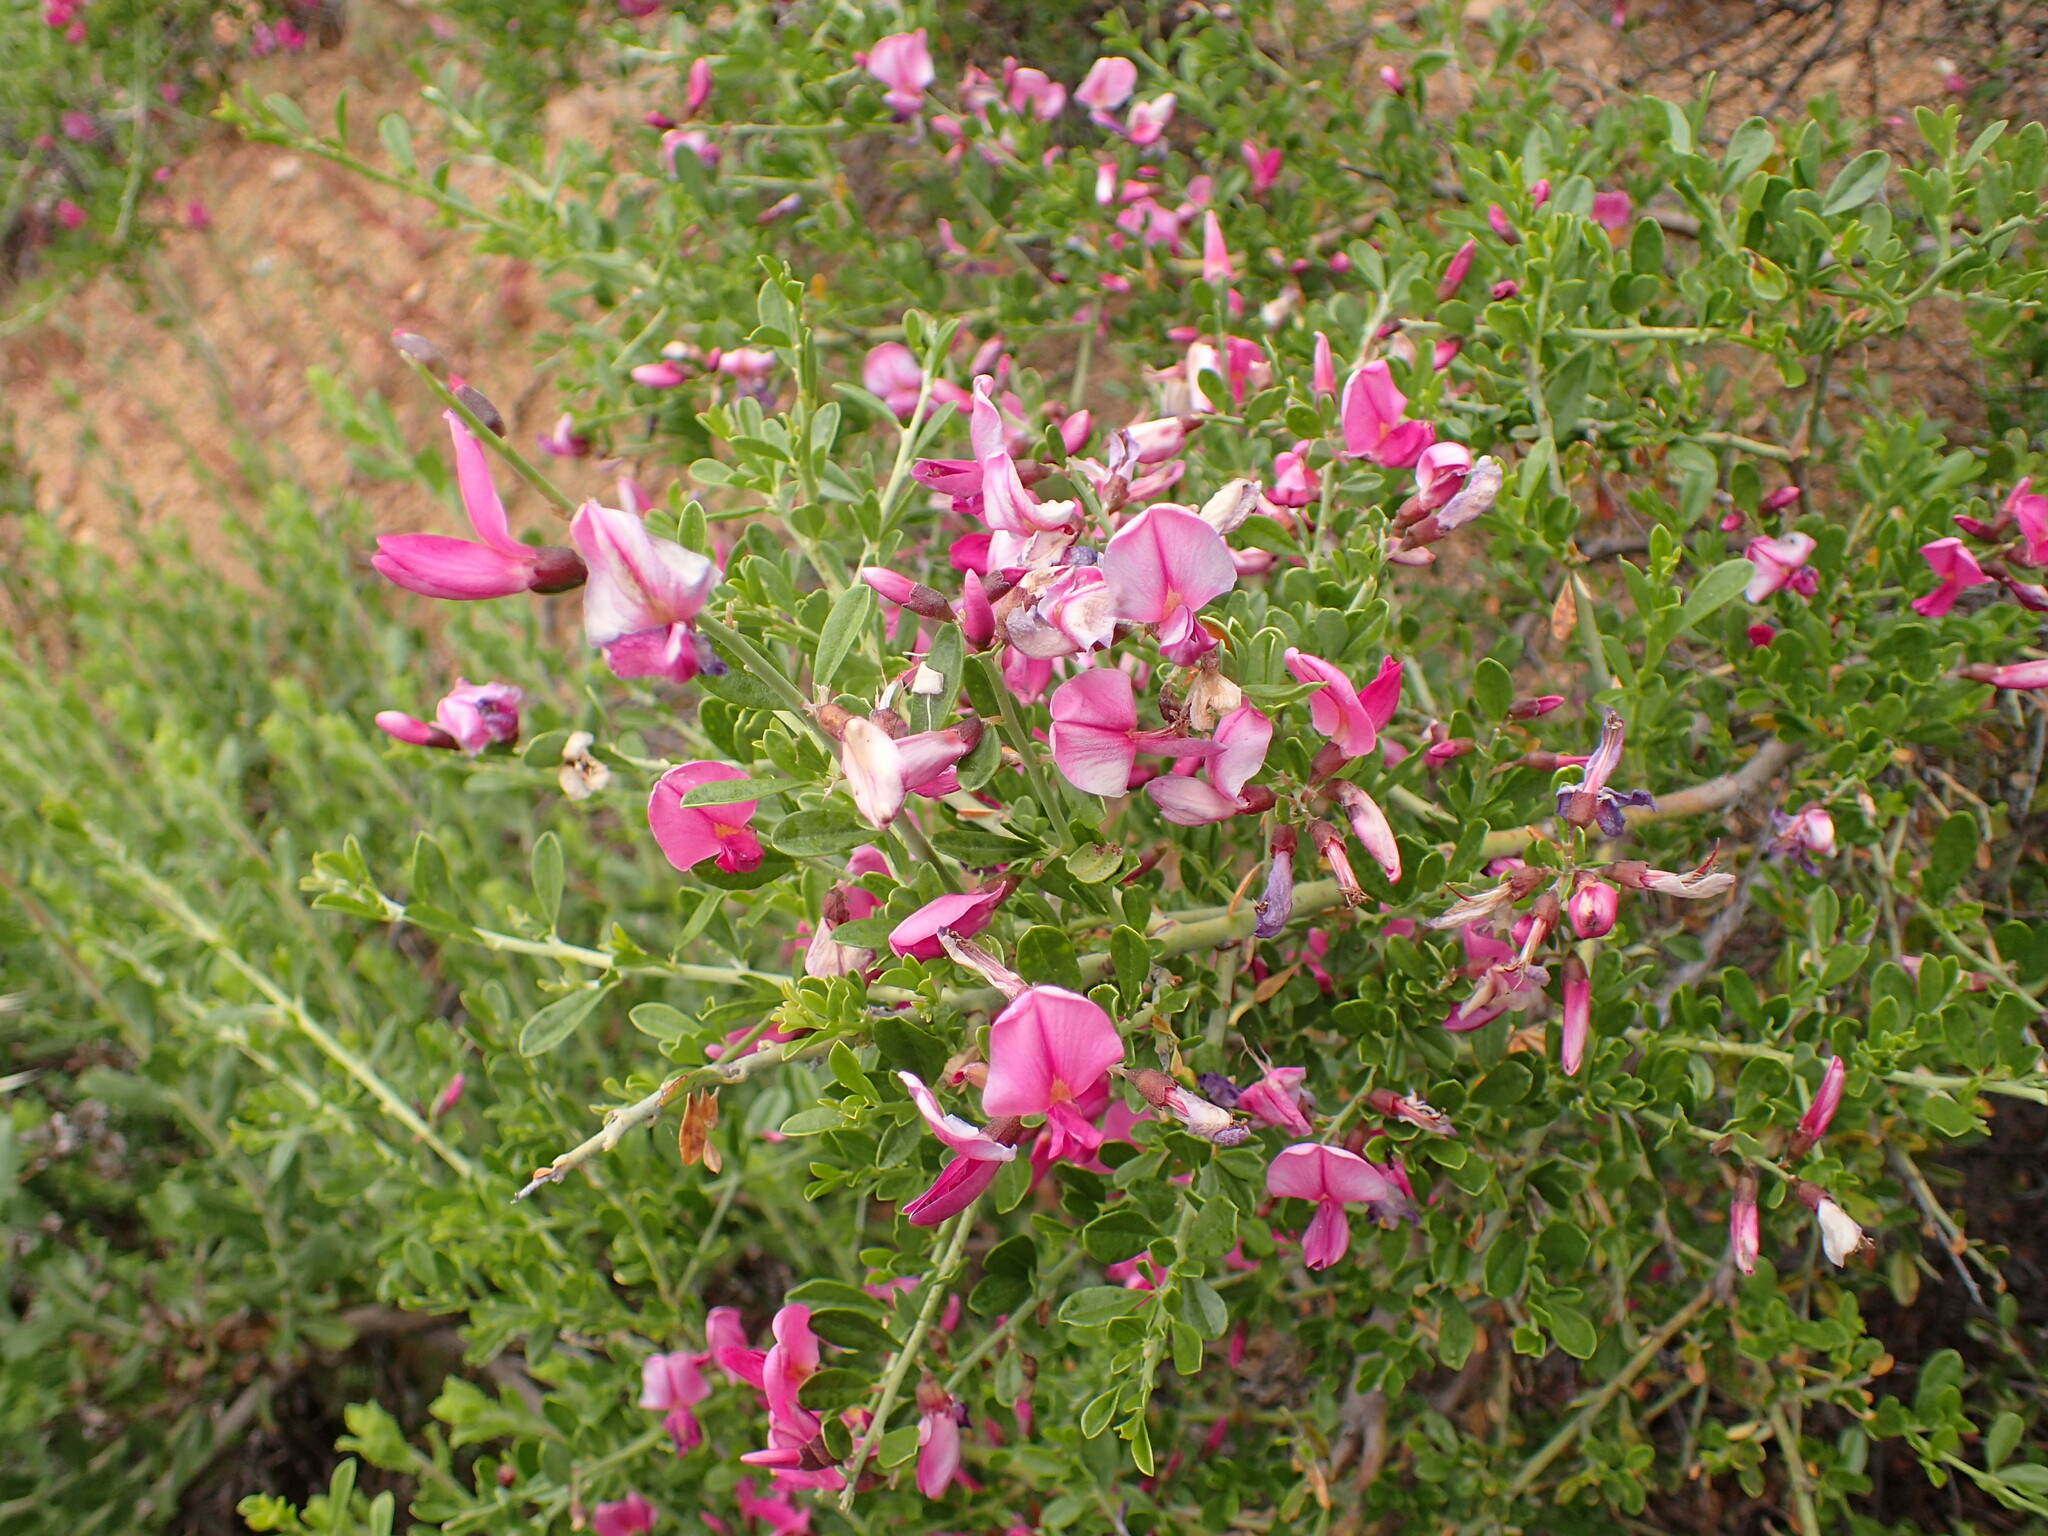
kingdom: Plantae
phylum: Tracheophyta
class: Magnoliopsida
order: Fabales
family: Fabaceae
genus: Pickeringia
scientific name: Pickeringia montana
